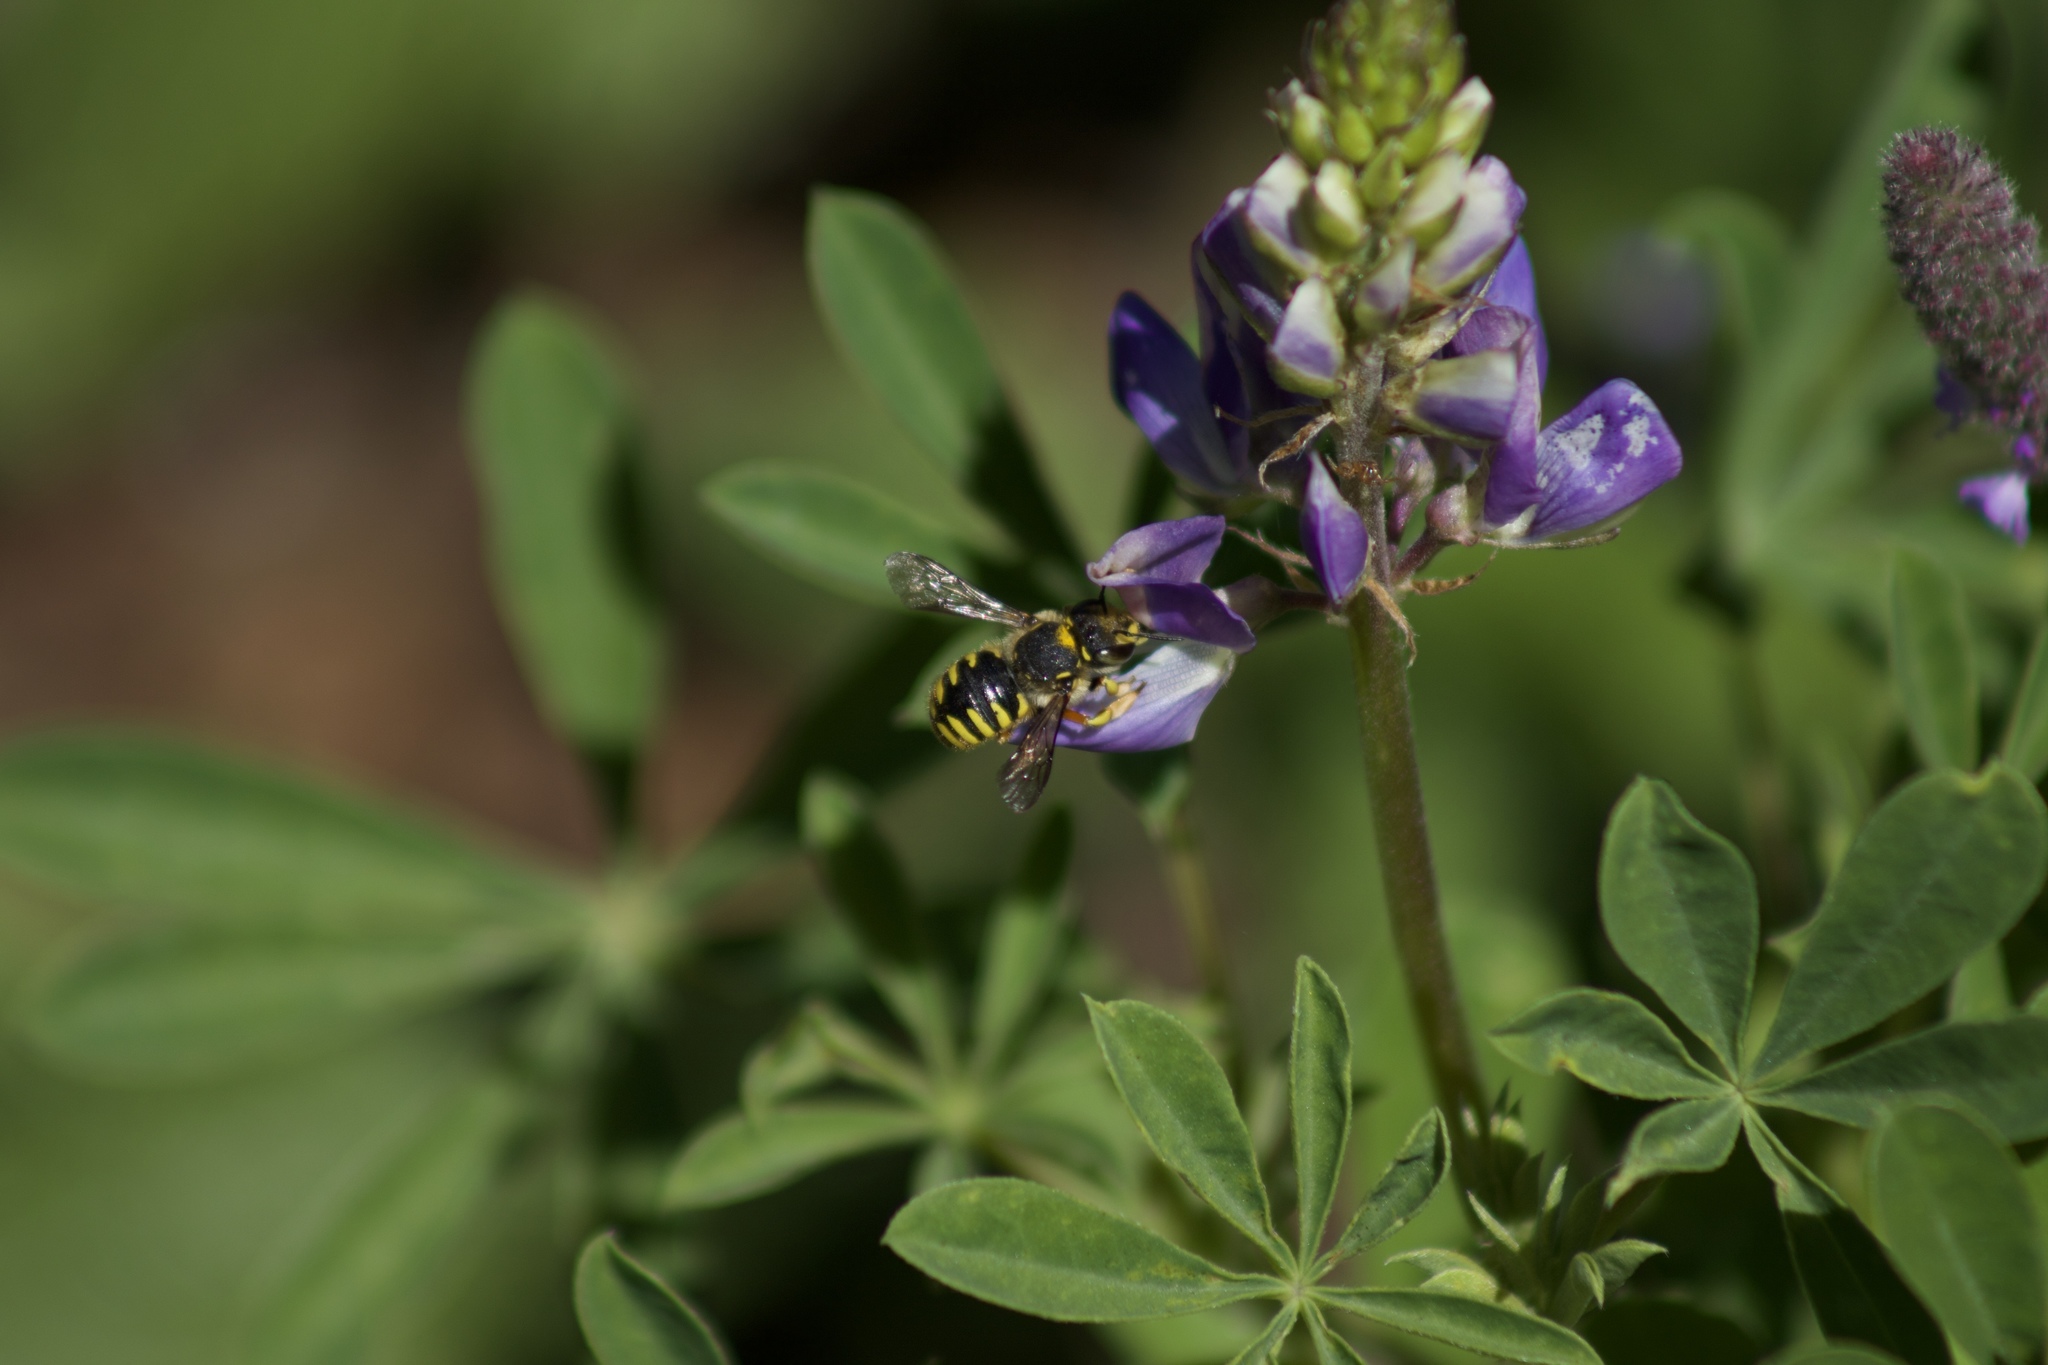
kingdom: Animalia
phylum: Arthropoda
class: Insecta
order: Hymenoptera
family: Megachilidae
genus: Anthidium
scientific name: Anthidium manicatum
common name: Wool carder bee
